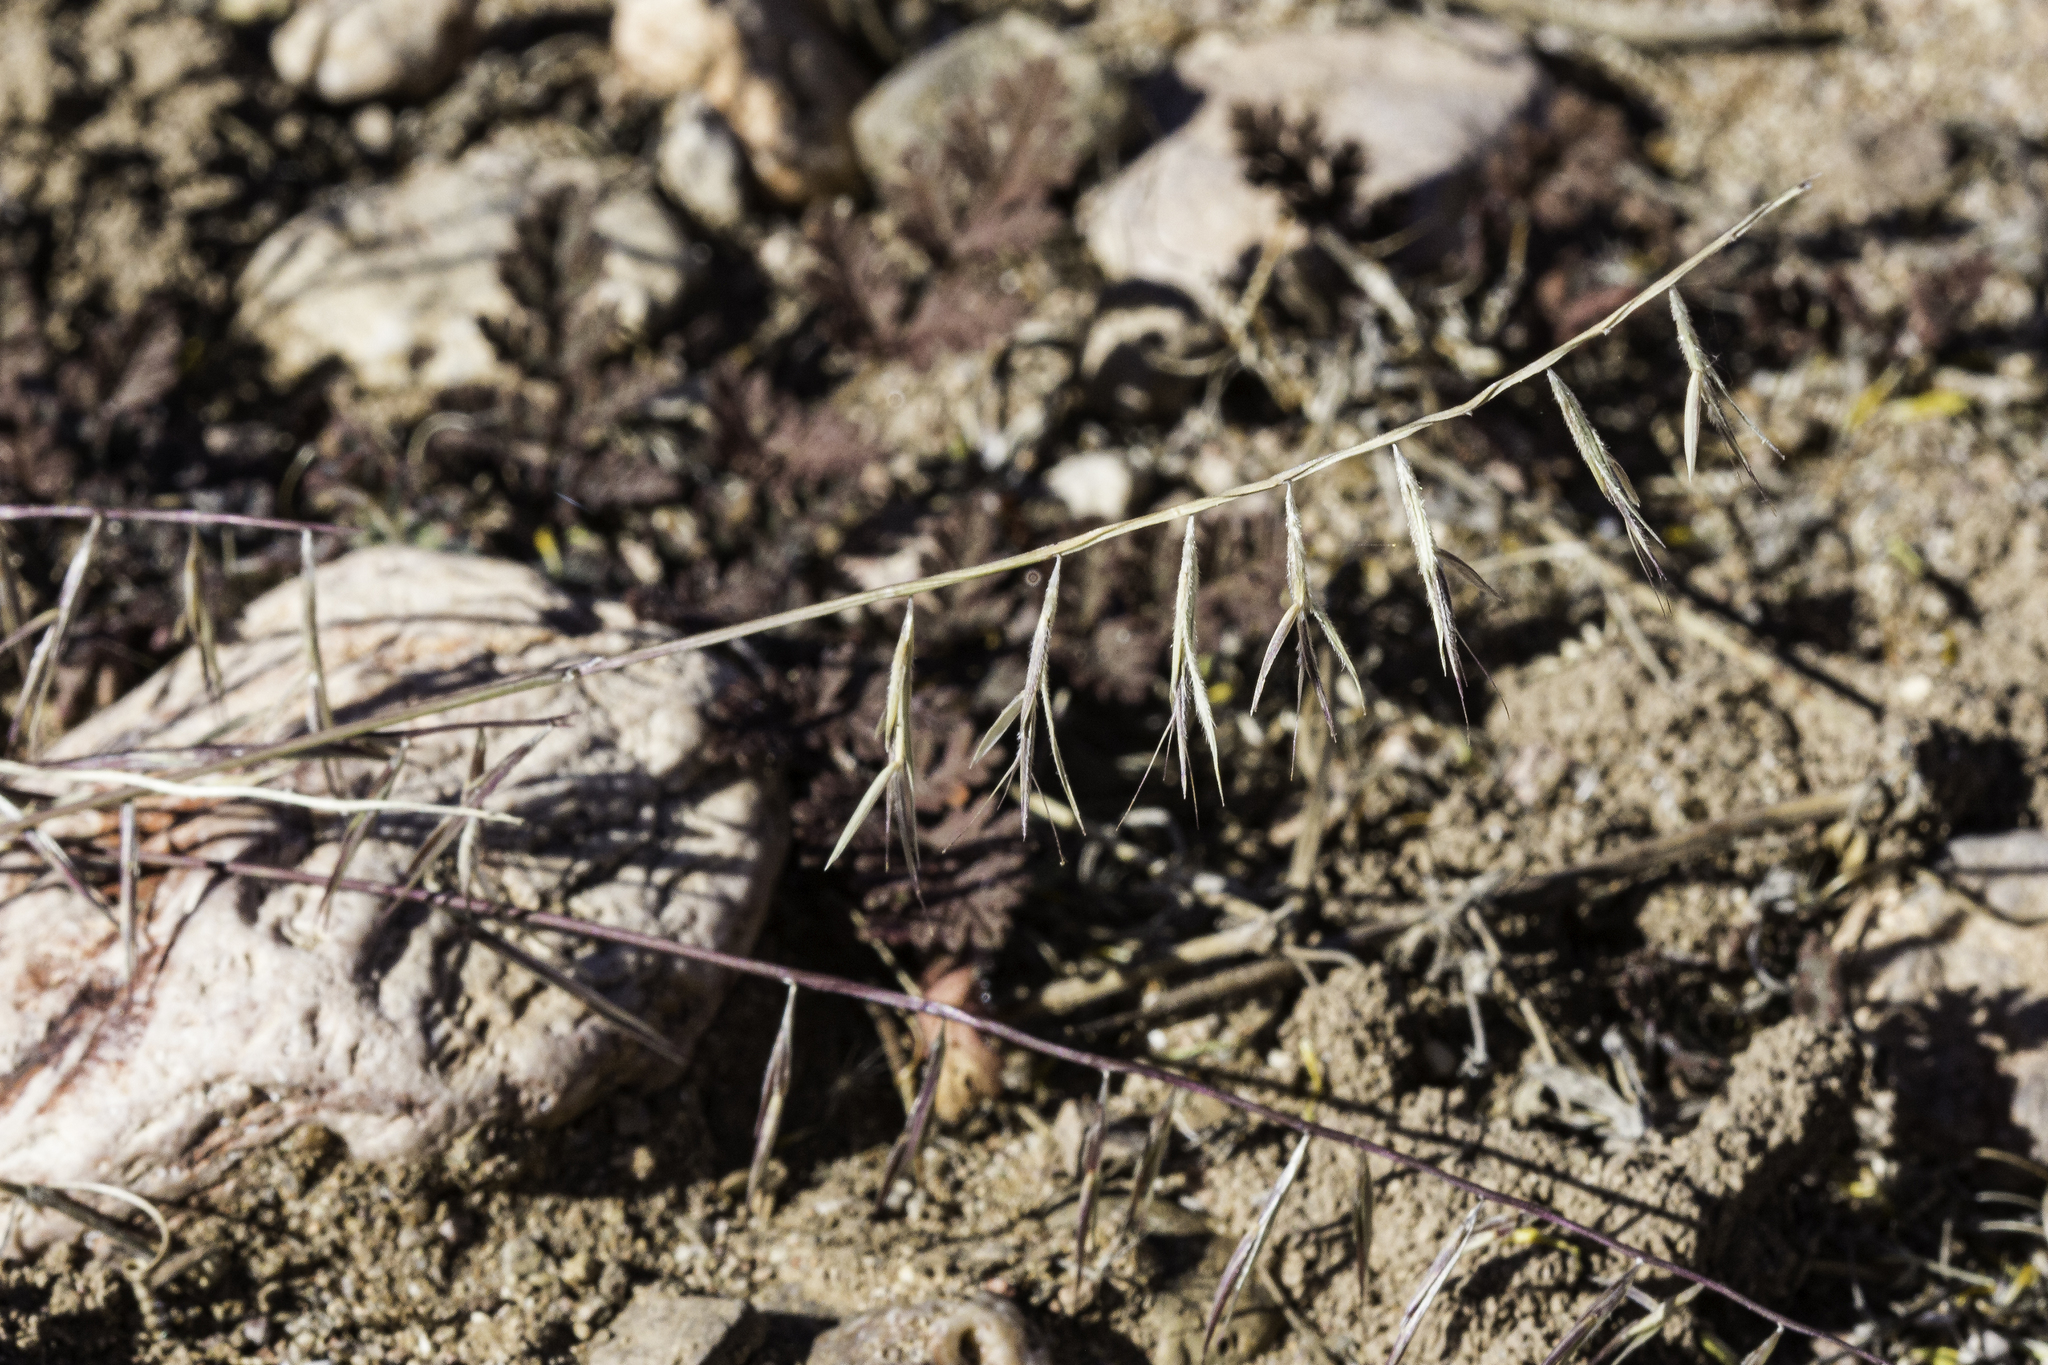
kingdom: Plantae
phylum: Tracheophyta
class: Liliopsida
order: Poales
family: Poaceae
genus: Bouteloua
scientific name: Bouteloua aristidoides
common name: Needle grama
